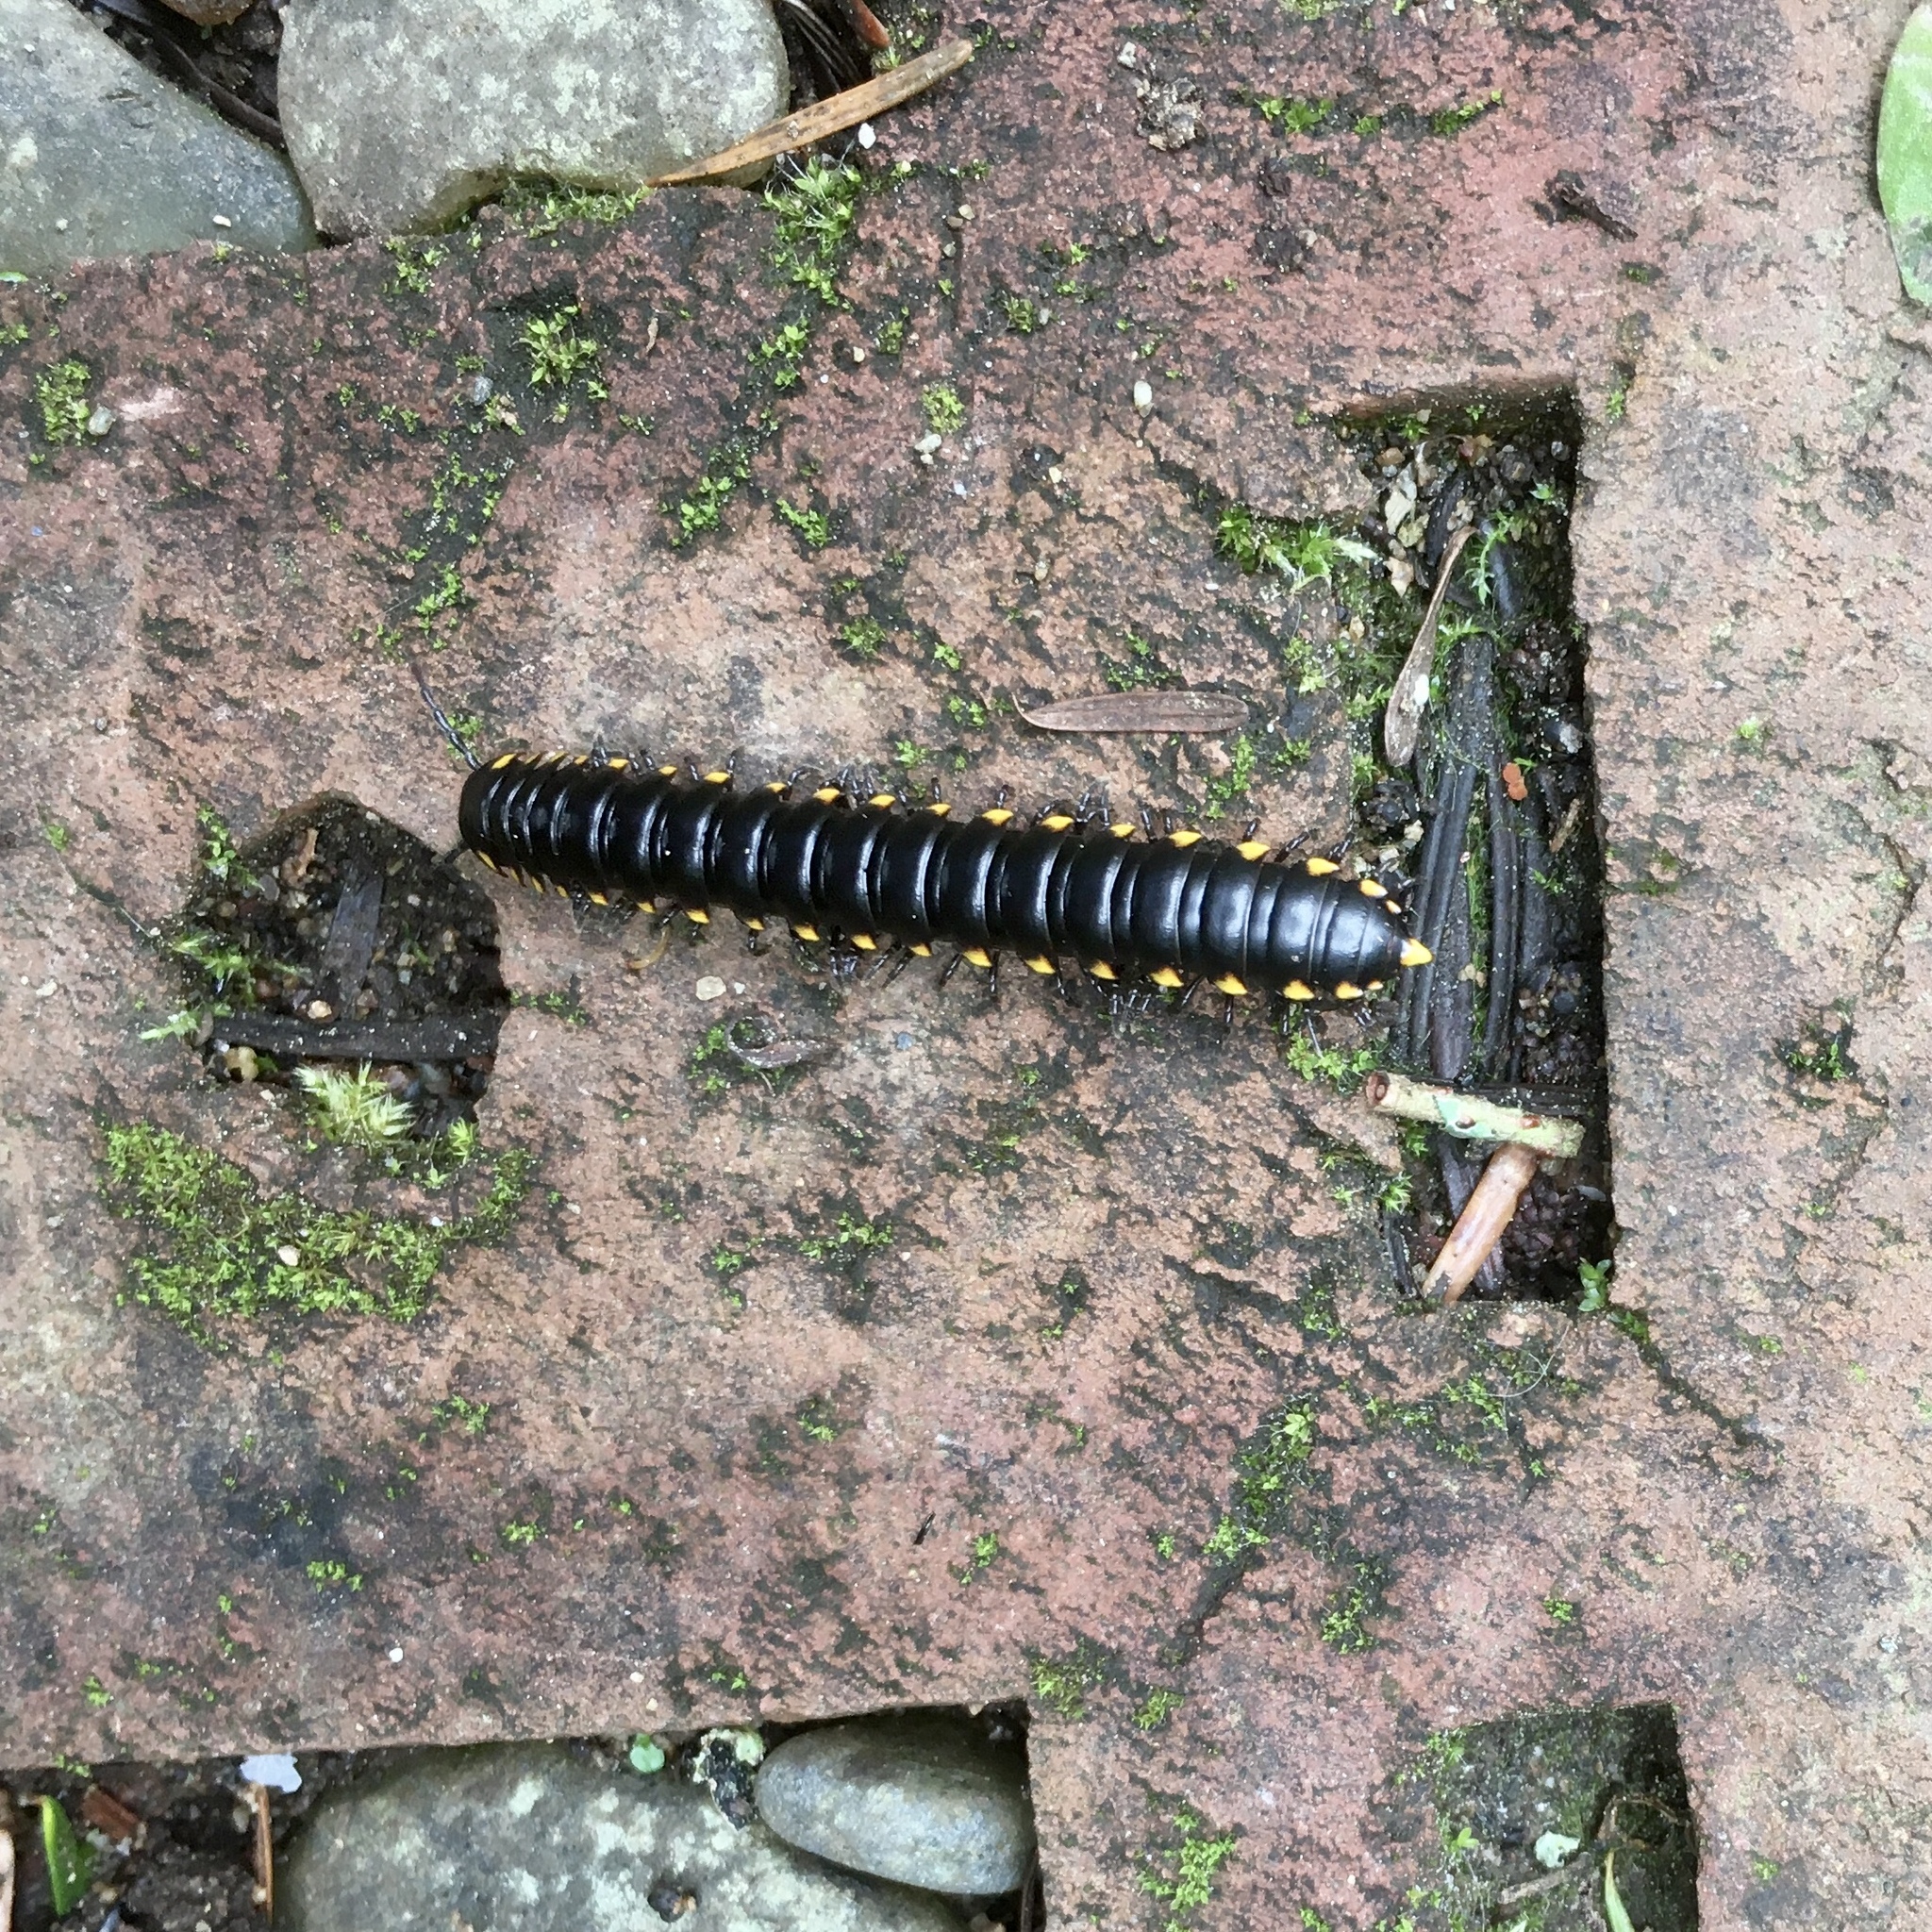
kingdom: Animalia
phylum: Arthropoda
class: Diplopoda
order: Polydesmida
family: Xystodesmidae
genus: Harpaphe
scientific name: Harpaphe haydeniana
